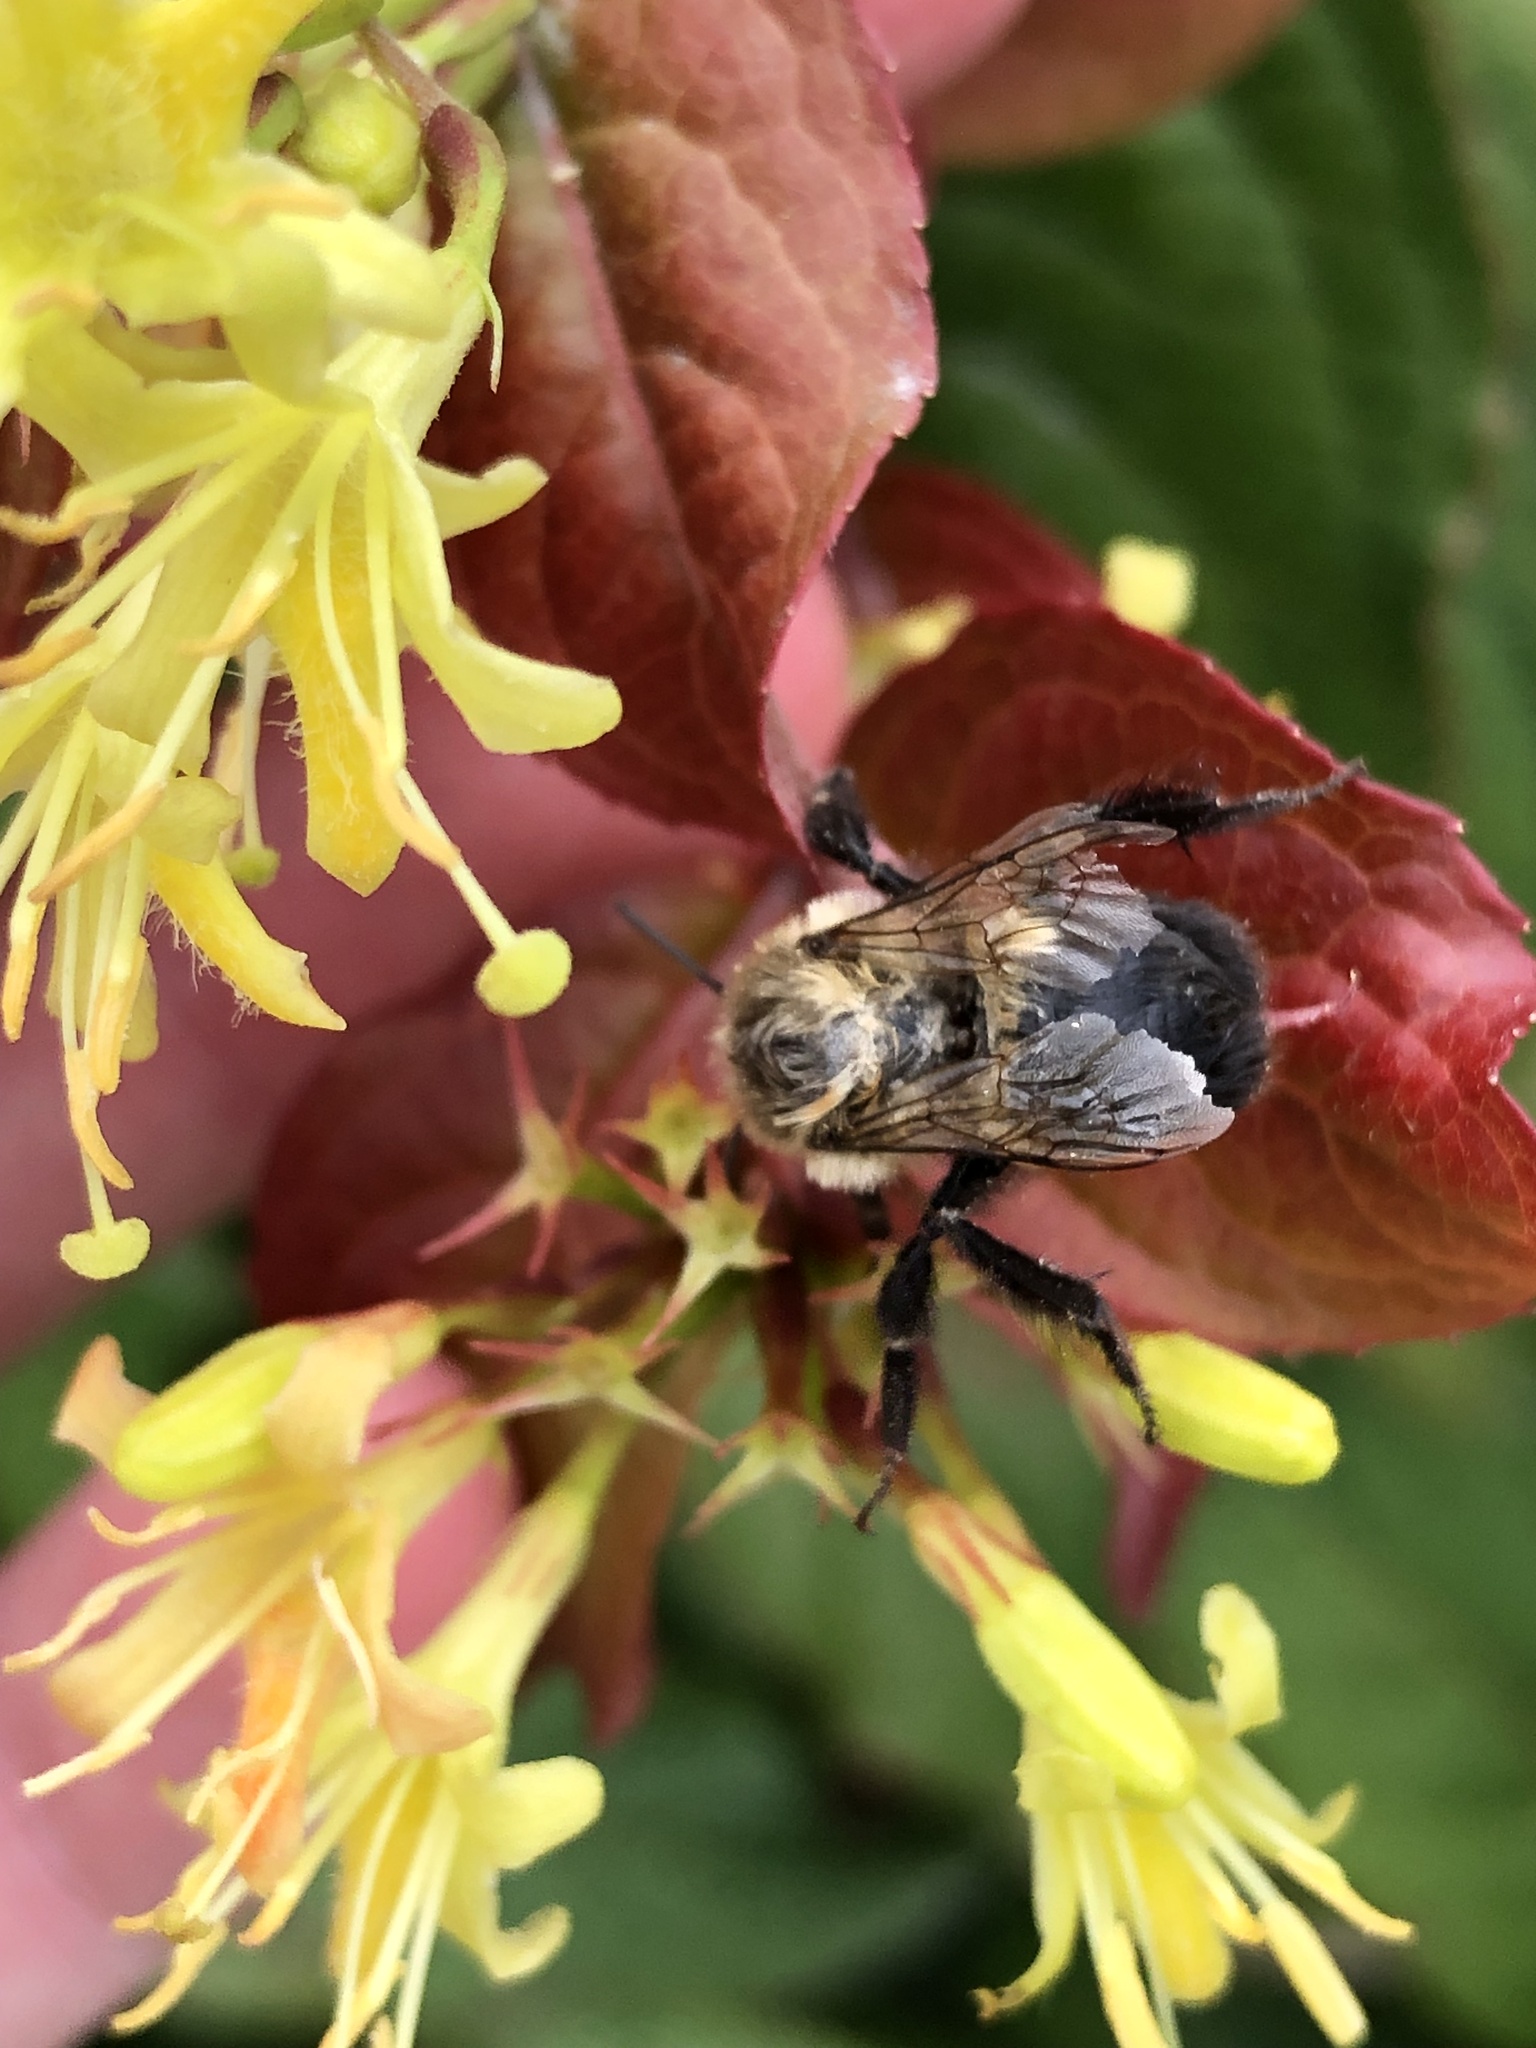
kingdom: Animalia
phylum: Arthropoda
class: Insecta
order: Hymenoptera
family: Apidae
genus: Bombus
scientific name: Bombus impatiens
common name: Common eastern bumble bee
